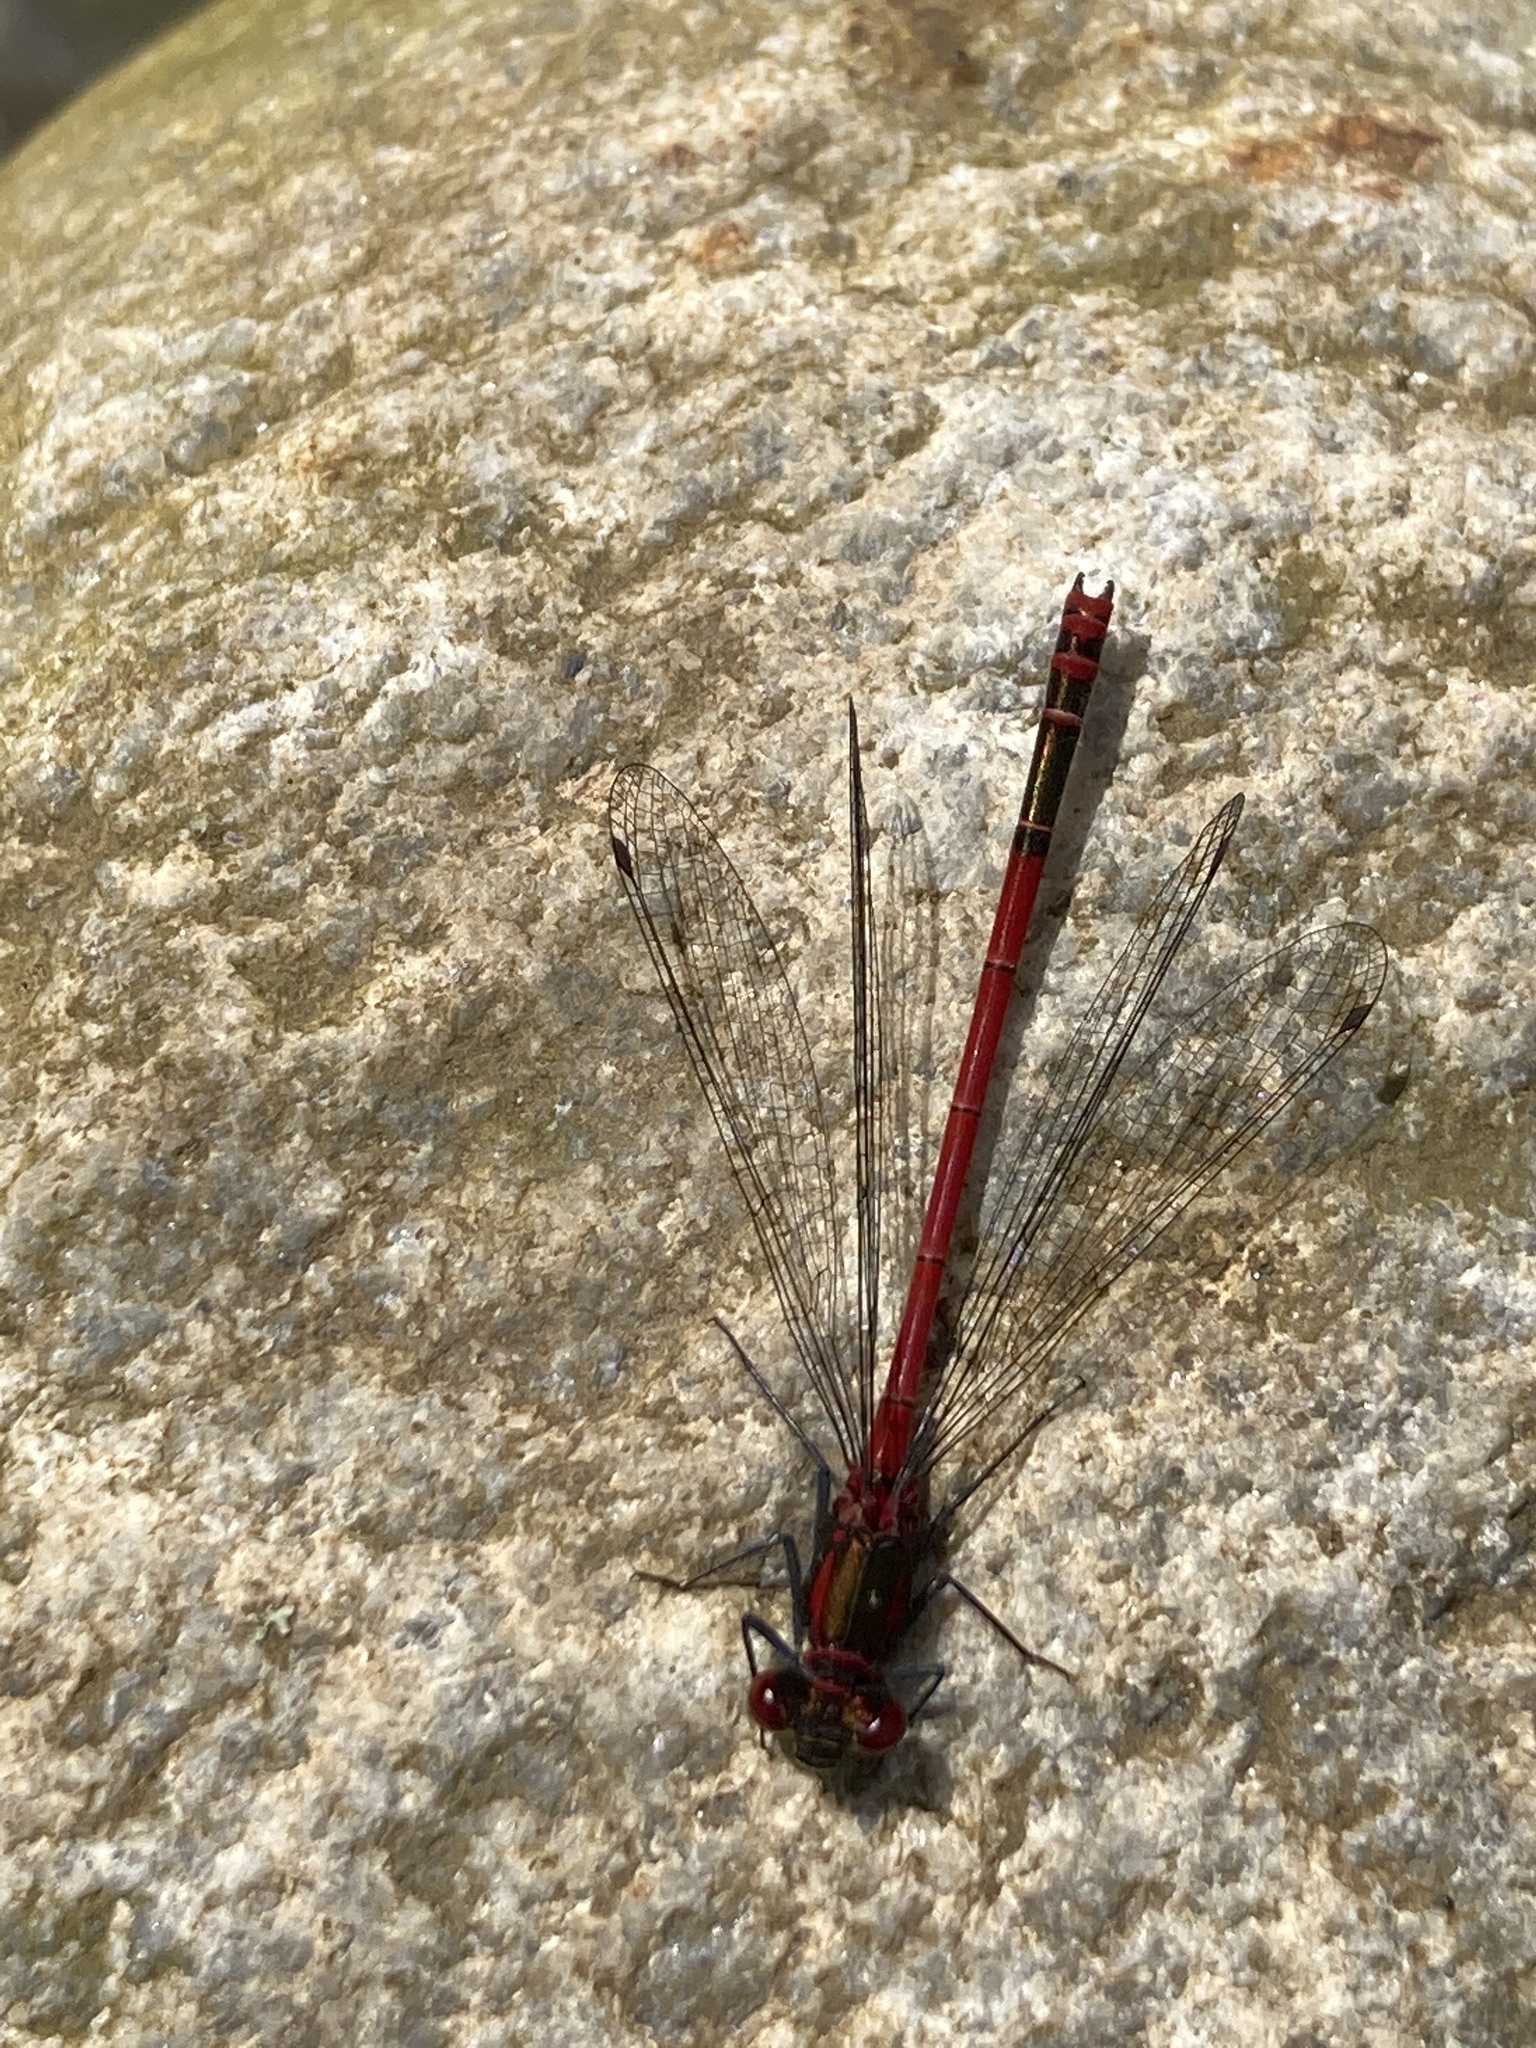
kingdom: Animalia
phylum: Arthropoda
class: Insecta
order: Odonata
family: Coenagrionidae
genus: Pyrrhosoma
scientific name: Pyrrhosoma nymphula
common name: Large red damsel
